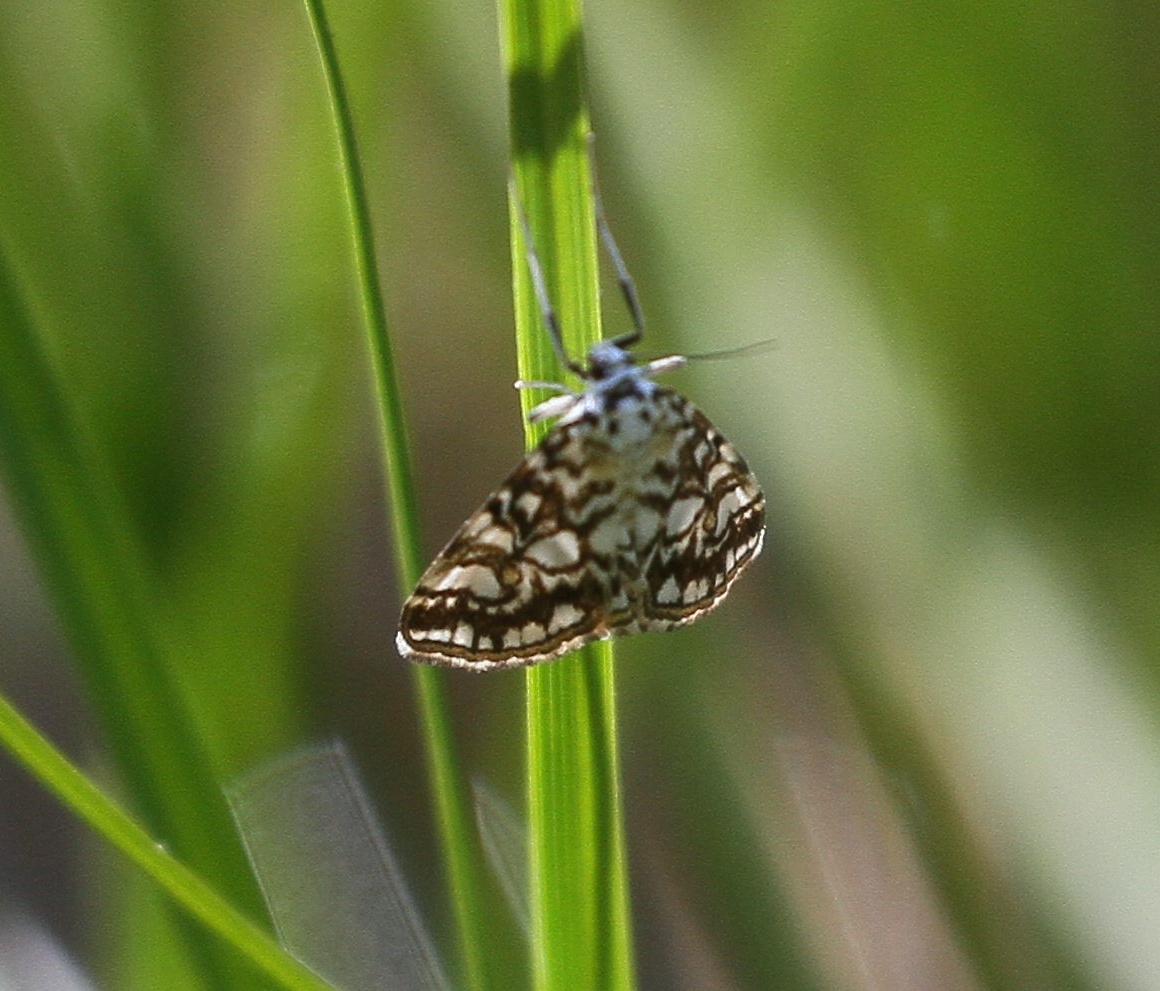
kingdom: Animalia
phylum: Arthropoda
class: Insecta
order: Lepidoptera
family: Crambidae
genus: Elophila
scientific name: Elophila nymphaeata
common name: Brown china-mark
